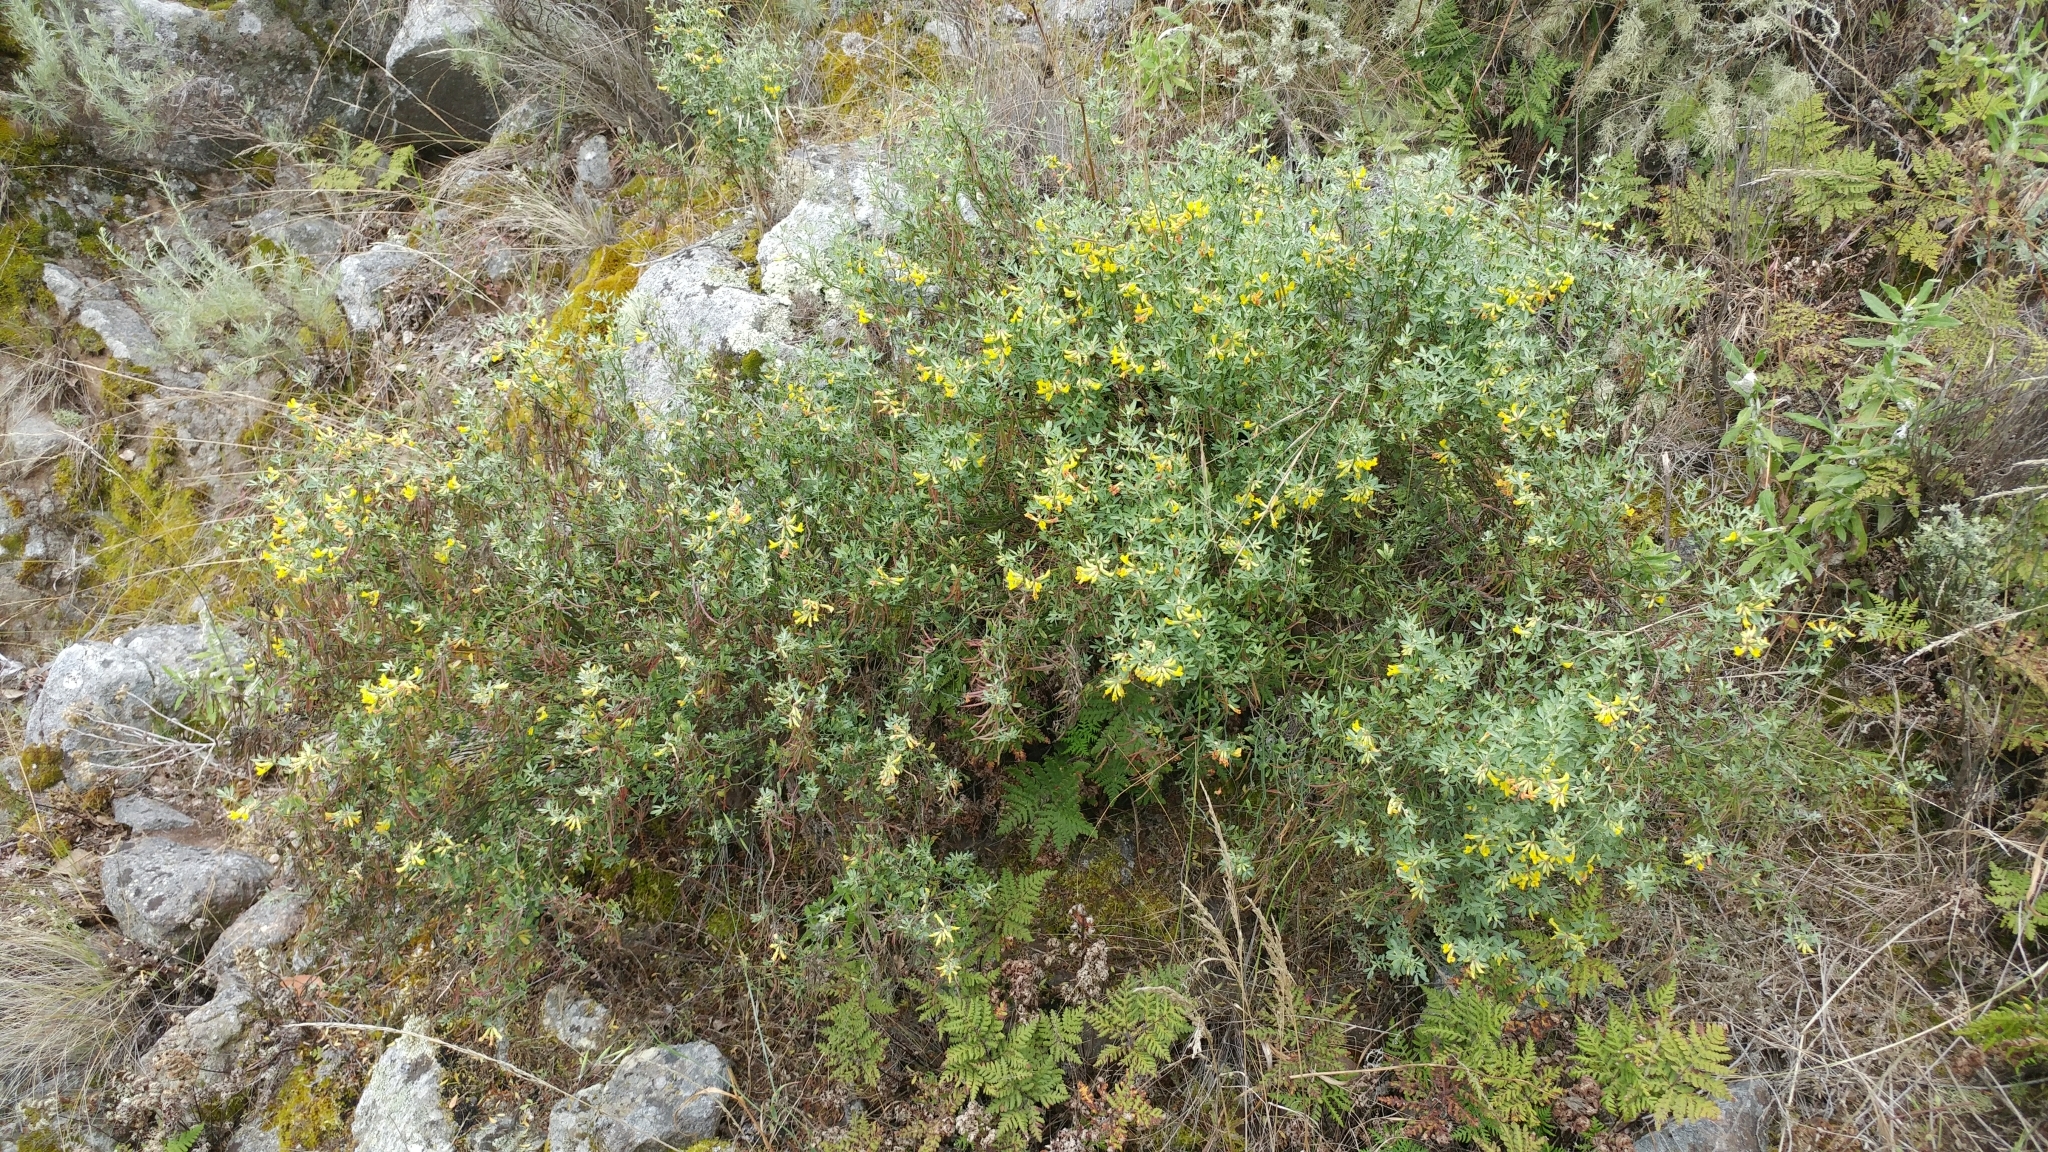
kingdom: Plantae
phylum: Tracheophyta
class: Magnoliopsida
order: Fabales
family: Fabaceae
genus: Acmispon
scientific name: Acmispon dendroideus
